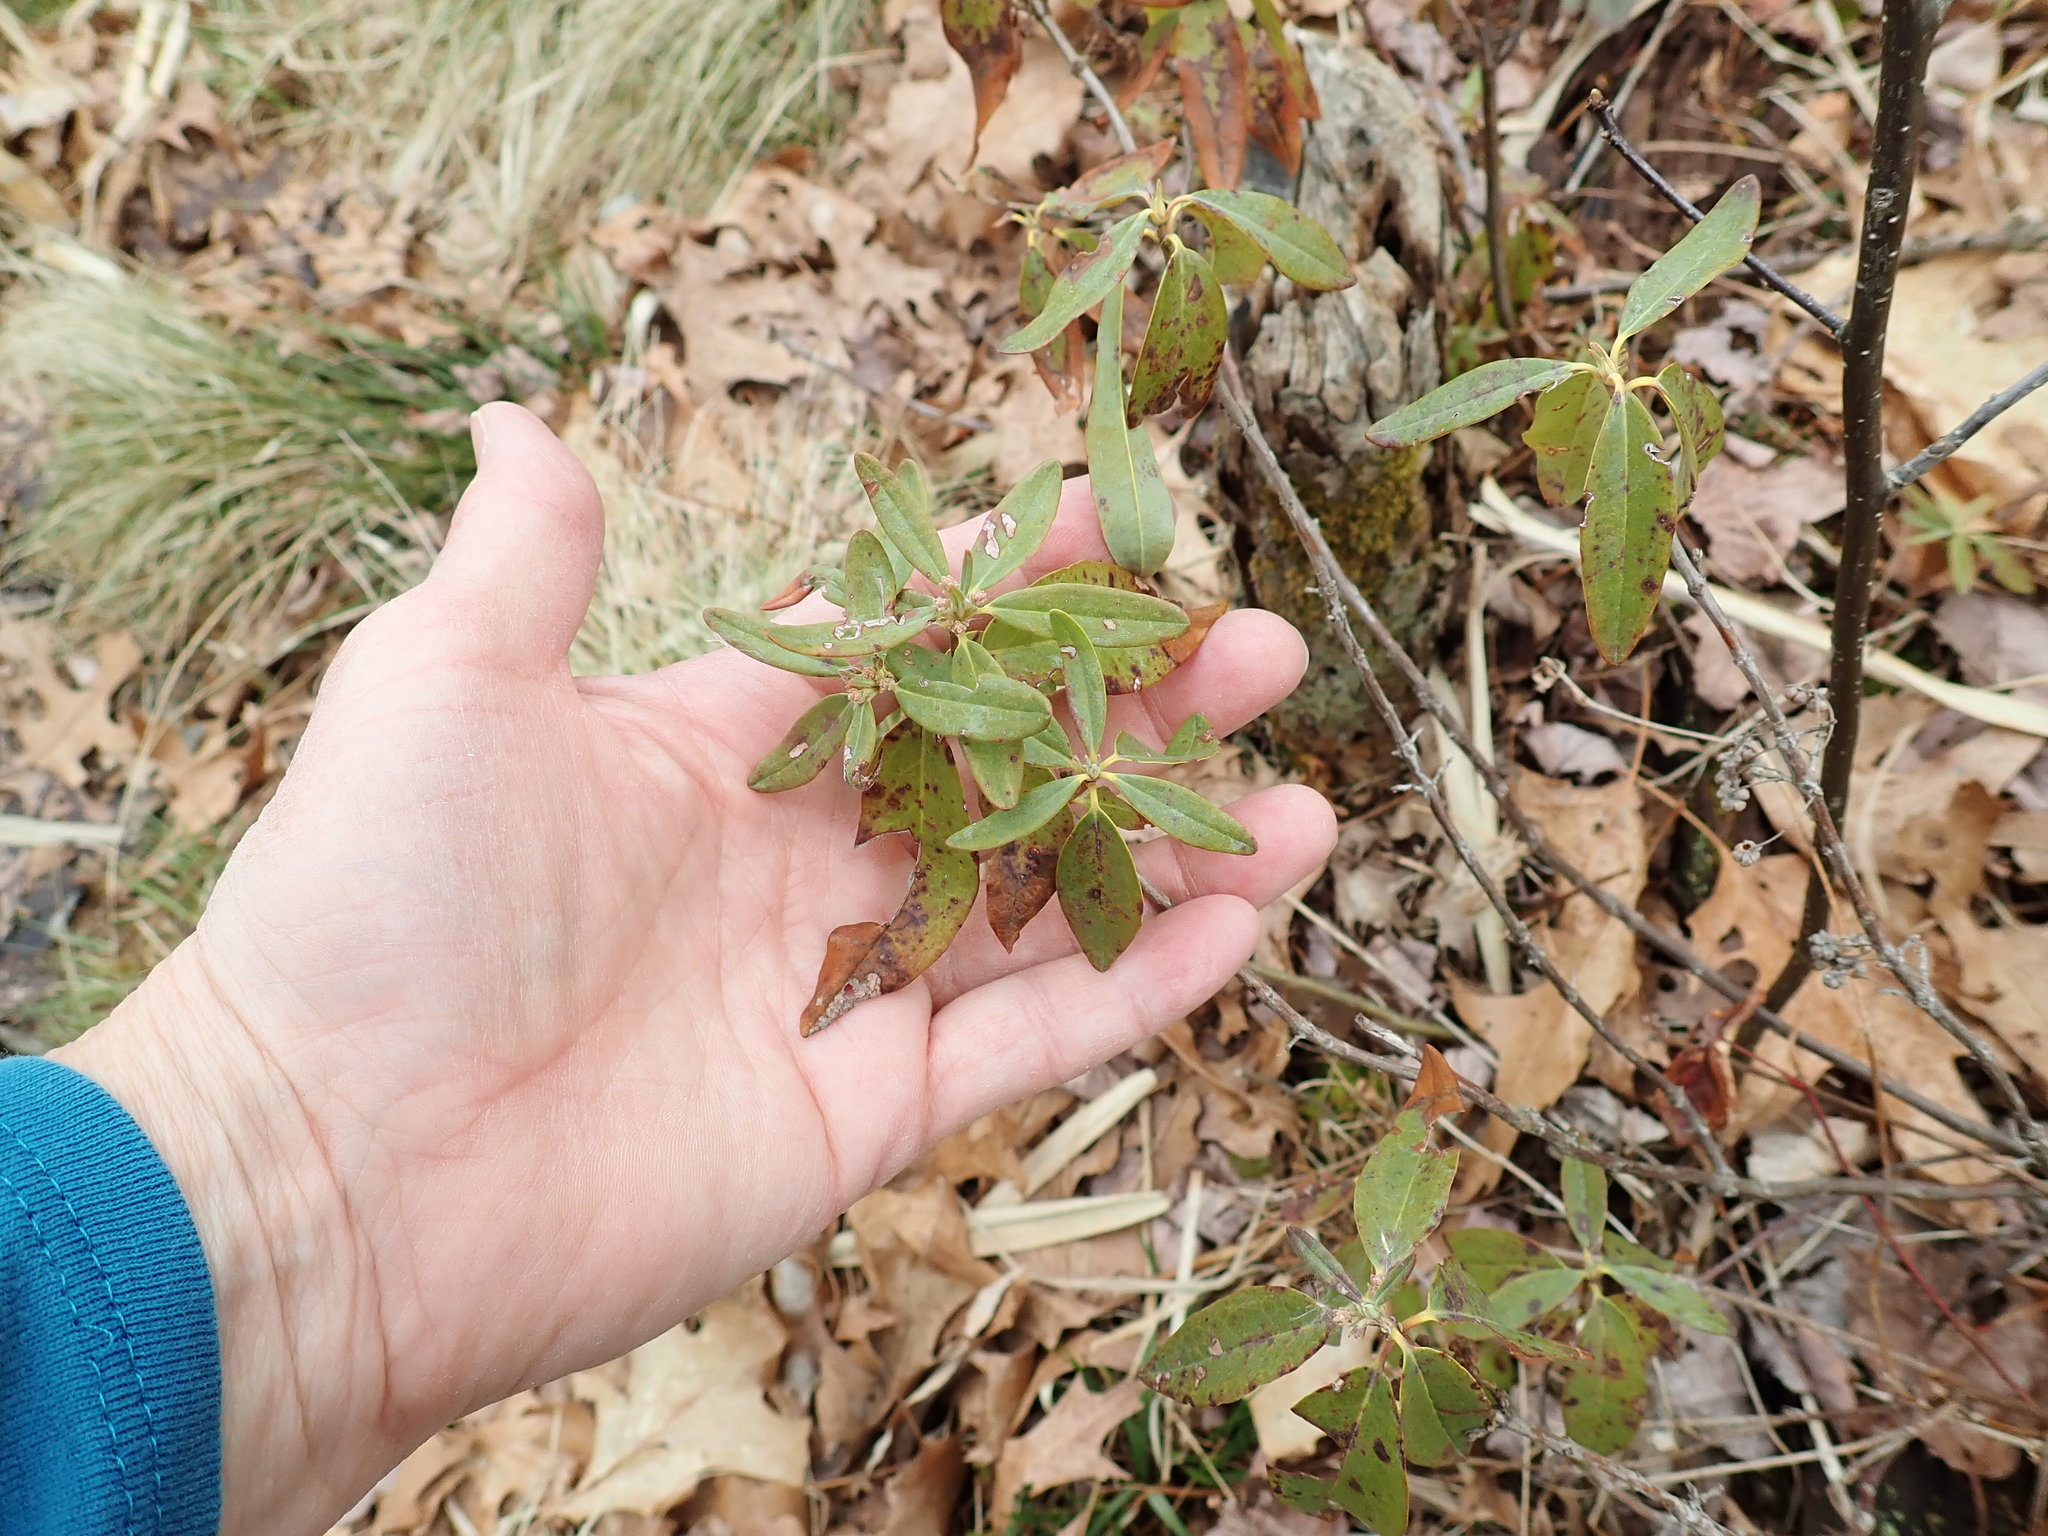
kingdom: Plantae
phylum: Tracheophyta
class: Magnoliopsida
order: Ericales
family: Ericaceae
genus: Kalmia
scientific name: Kalmia angustifolia
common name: Sheep-laurel
